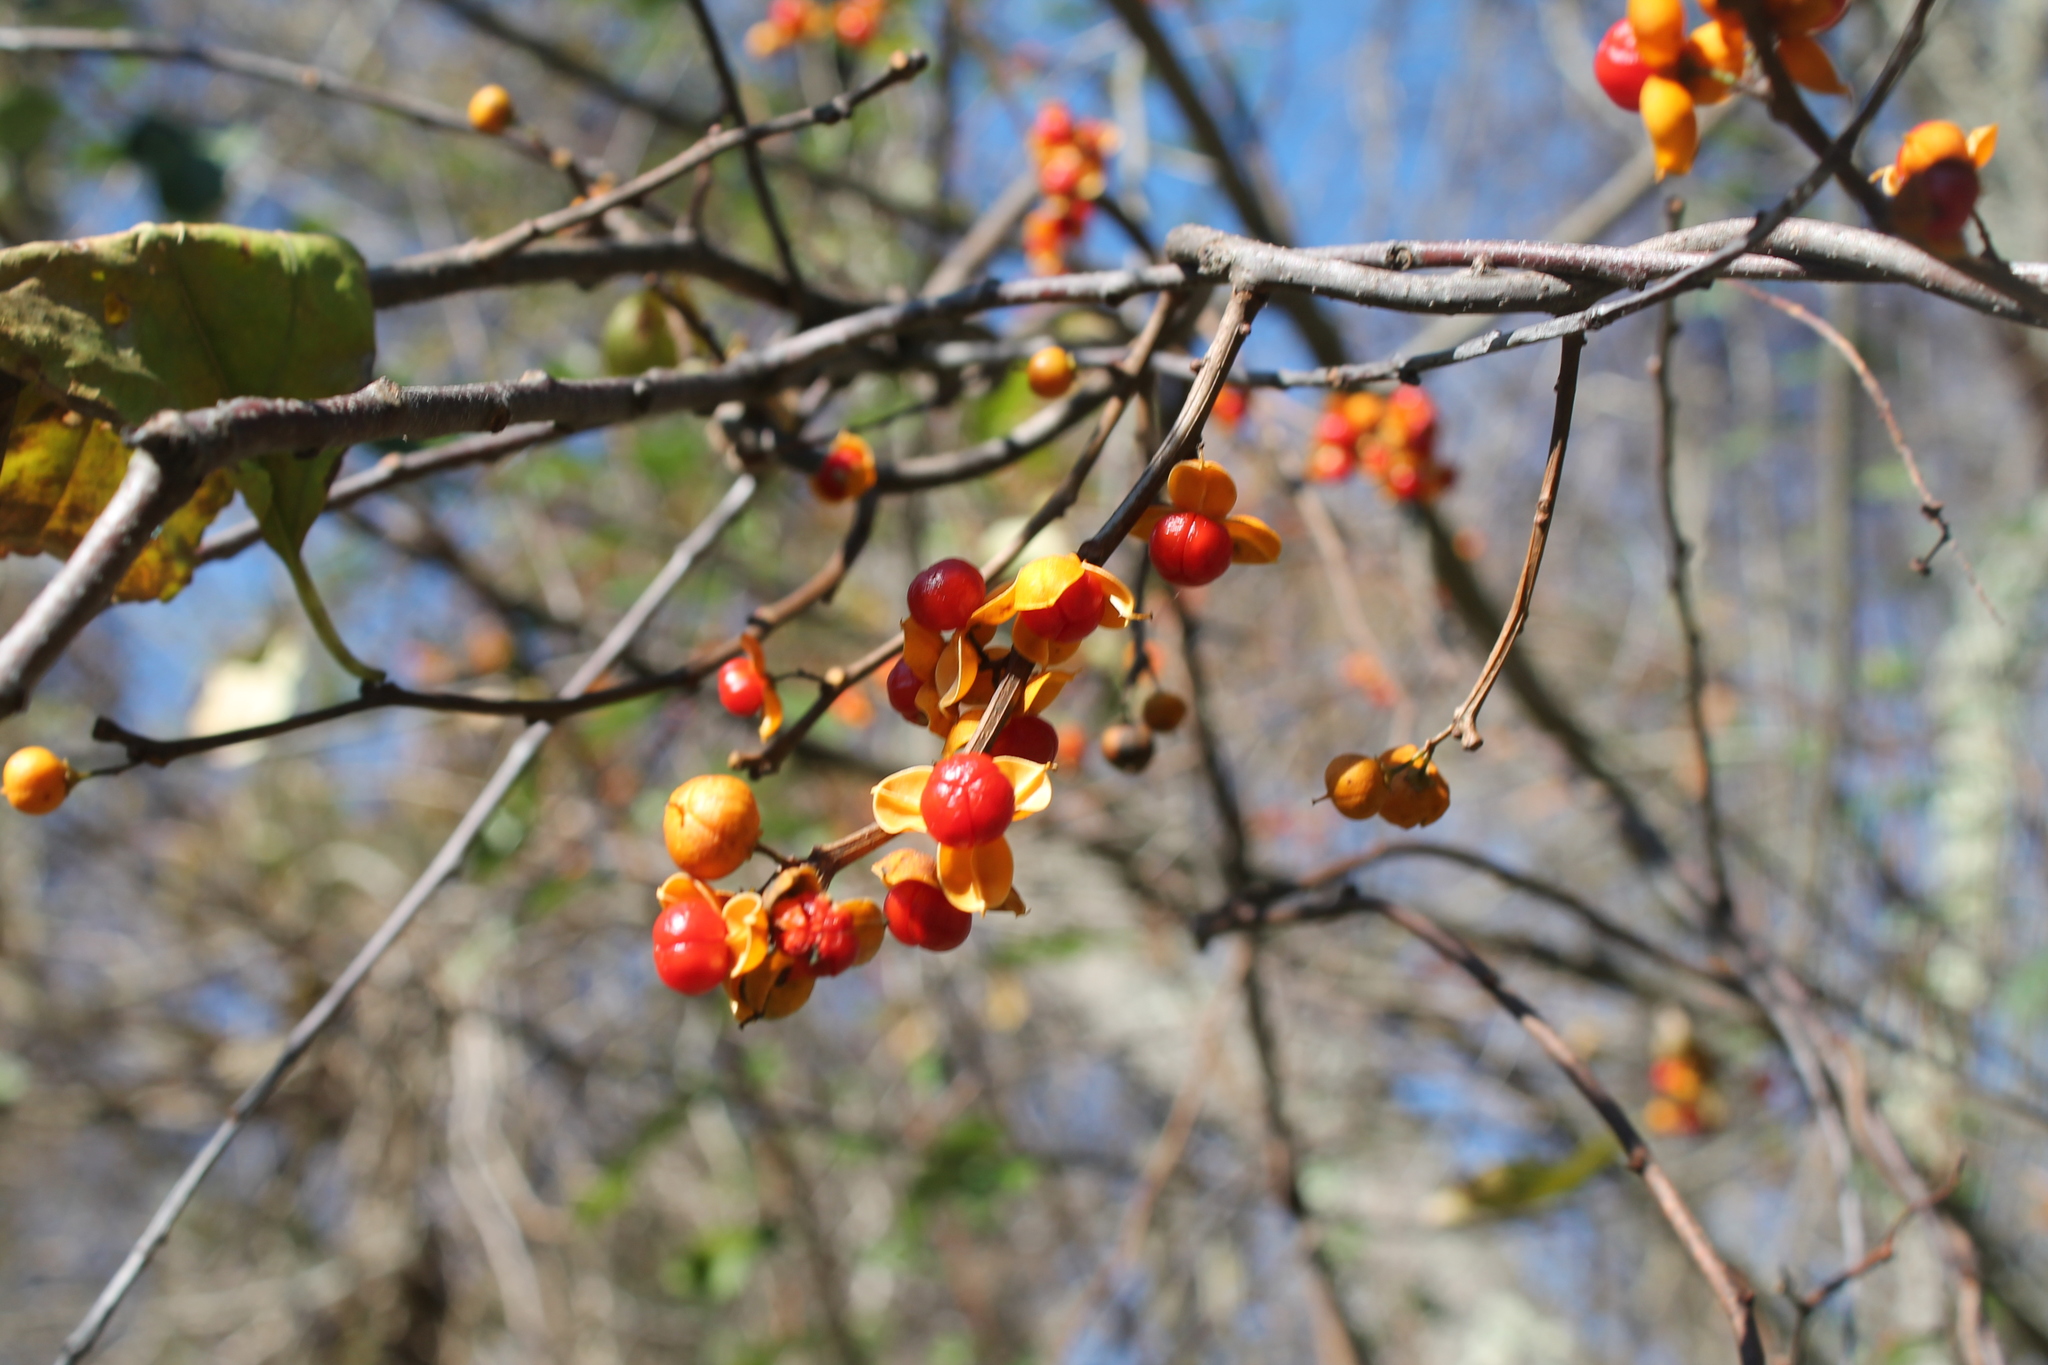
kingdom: Plantae
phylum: Tracheophyta
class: Magnoliopsida
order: Celastrales
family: Celastraceae
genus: Celastrus
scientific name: Celastrus orbiculatus
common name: Oriental bittersweet
